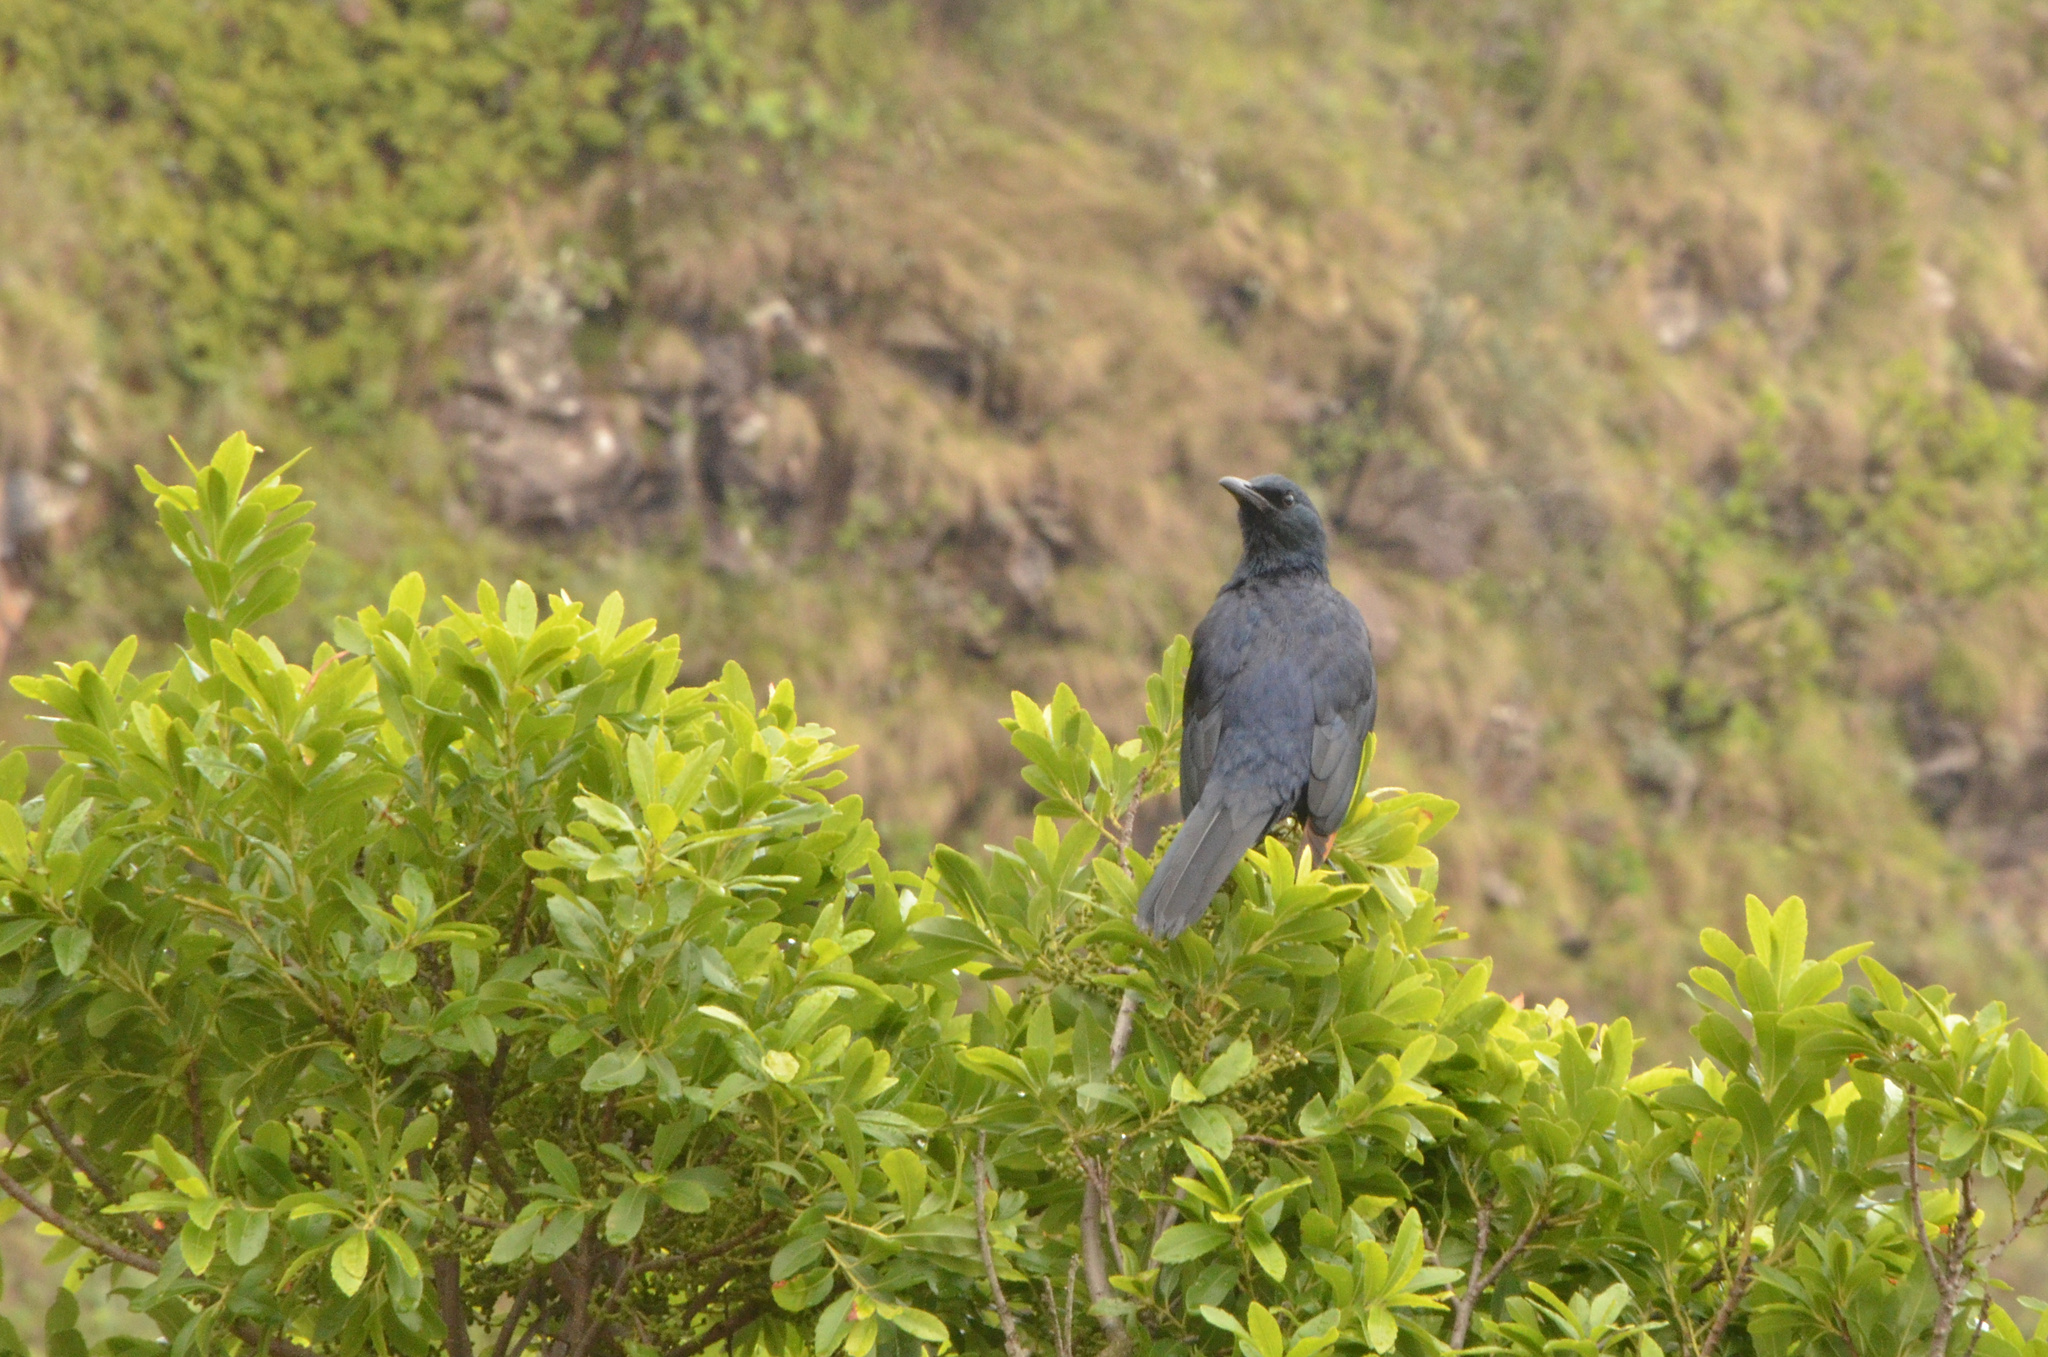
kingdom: Animalia
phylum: Chordata
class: Aves
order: Passeriformes
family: Sturnidae
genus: Onychognathus
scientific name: Onychognathus morio
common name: Red-winged starling
